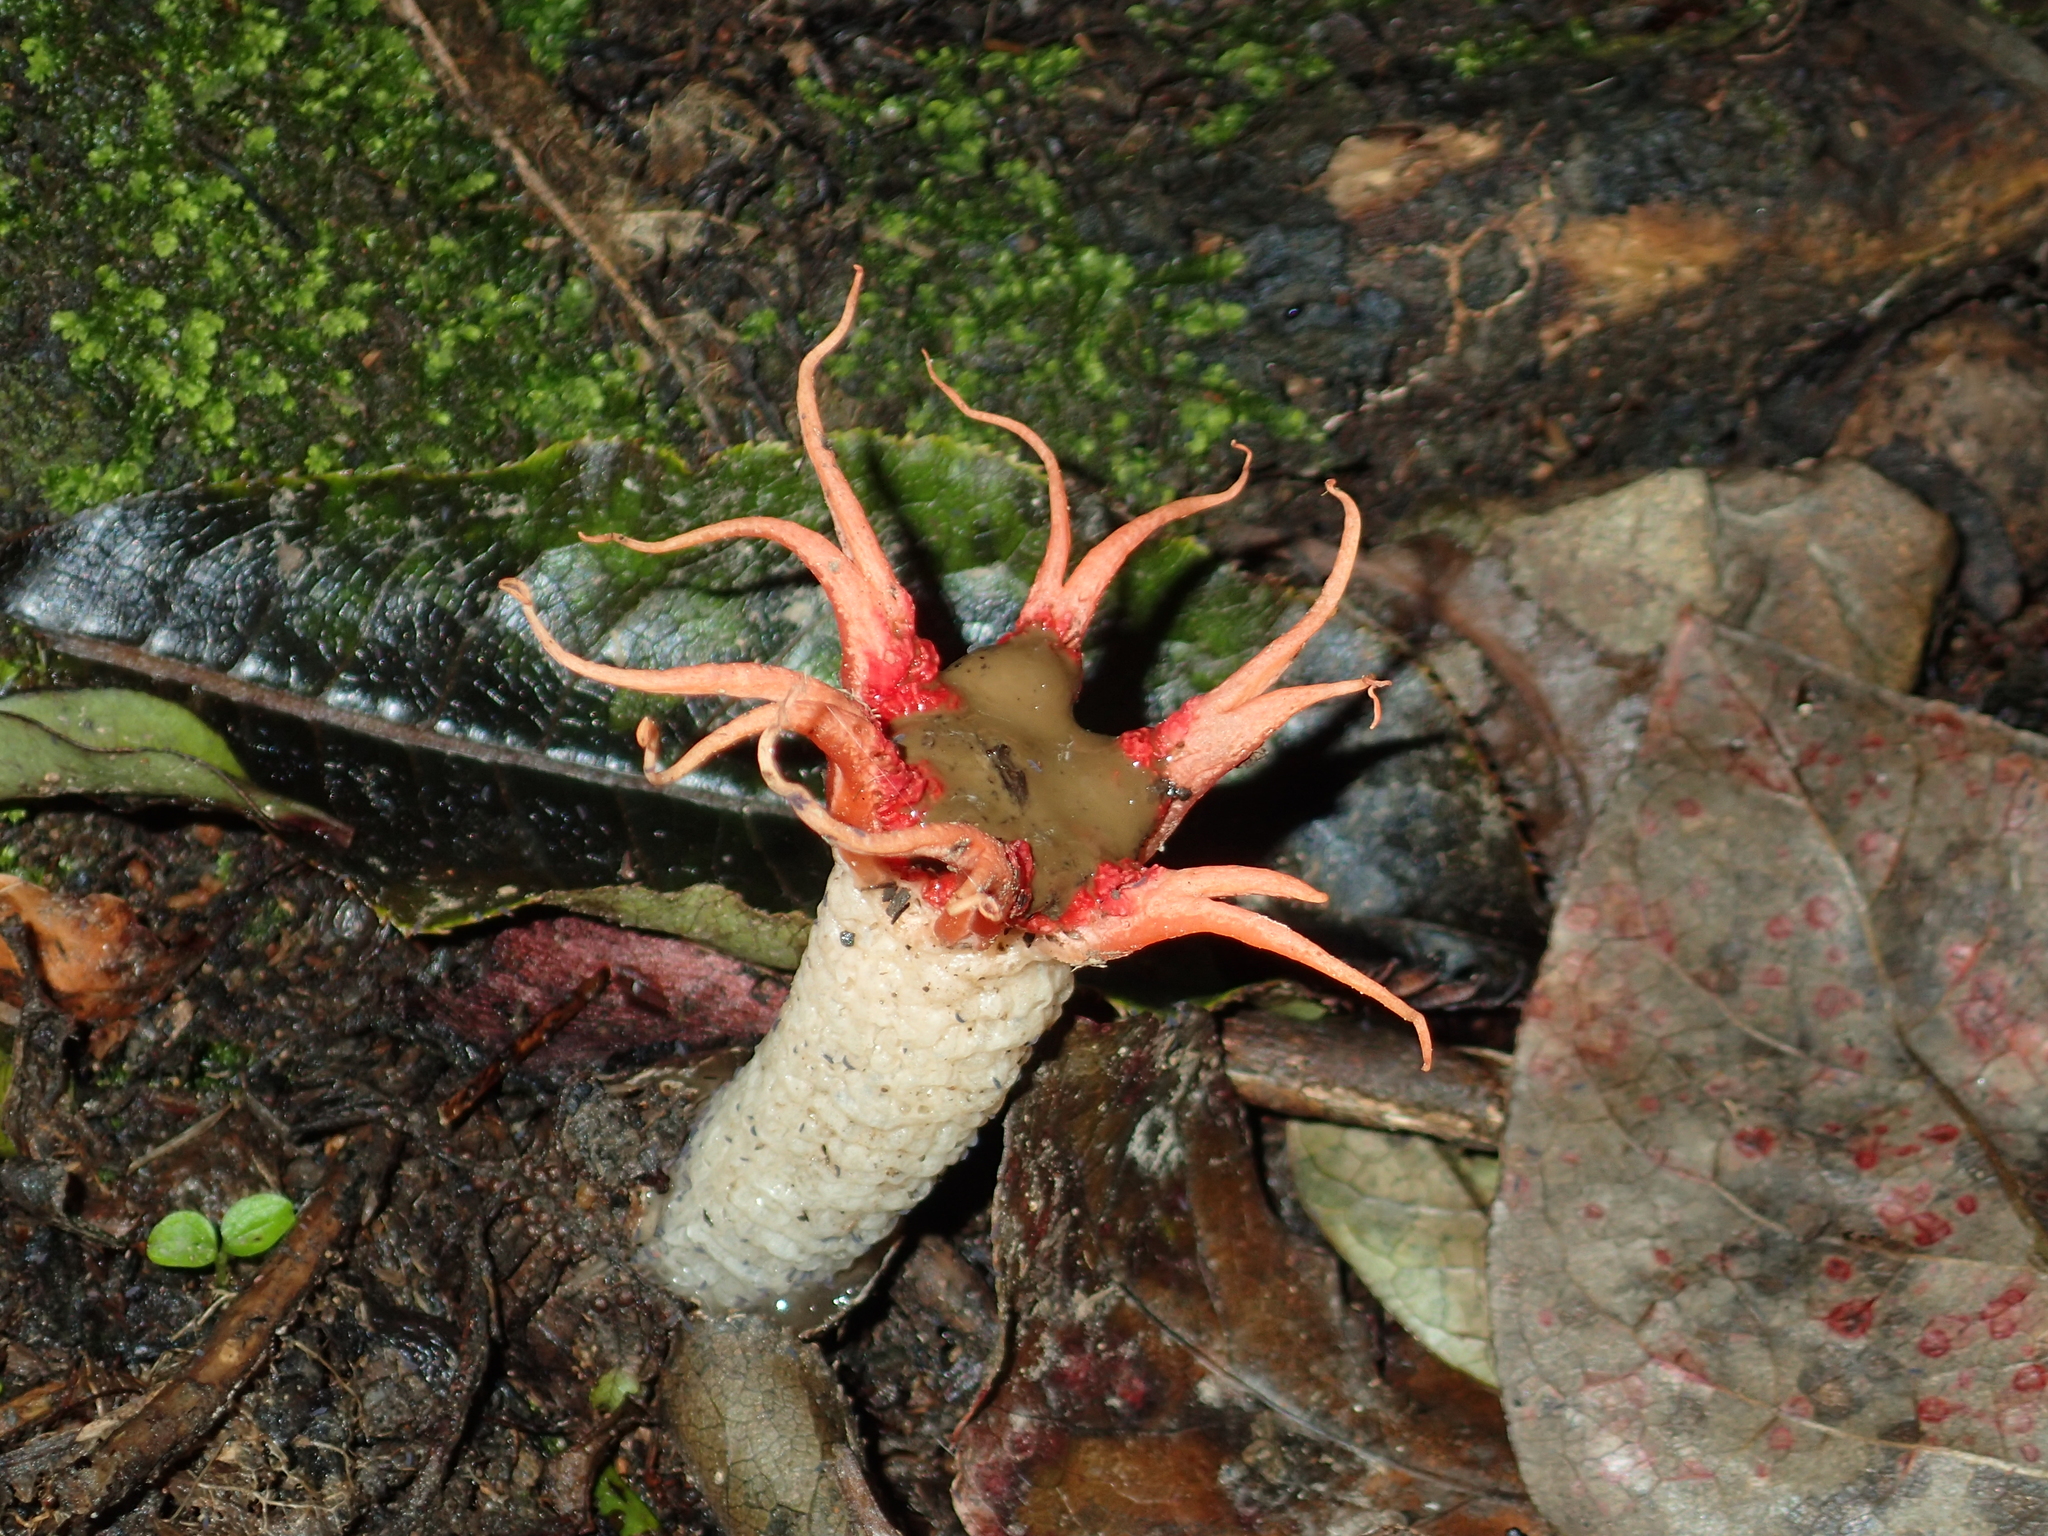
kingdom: Fungi
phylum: Basidiomycota
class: Agaricomycetes
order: Phallales
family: Phallaceae
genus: Aseroe
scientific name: Aseroe rubra
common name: Starfish fungus
